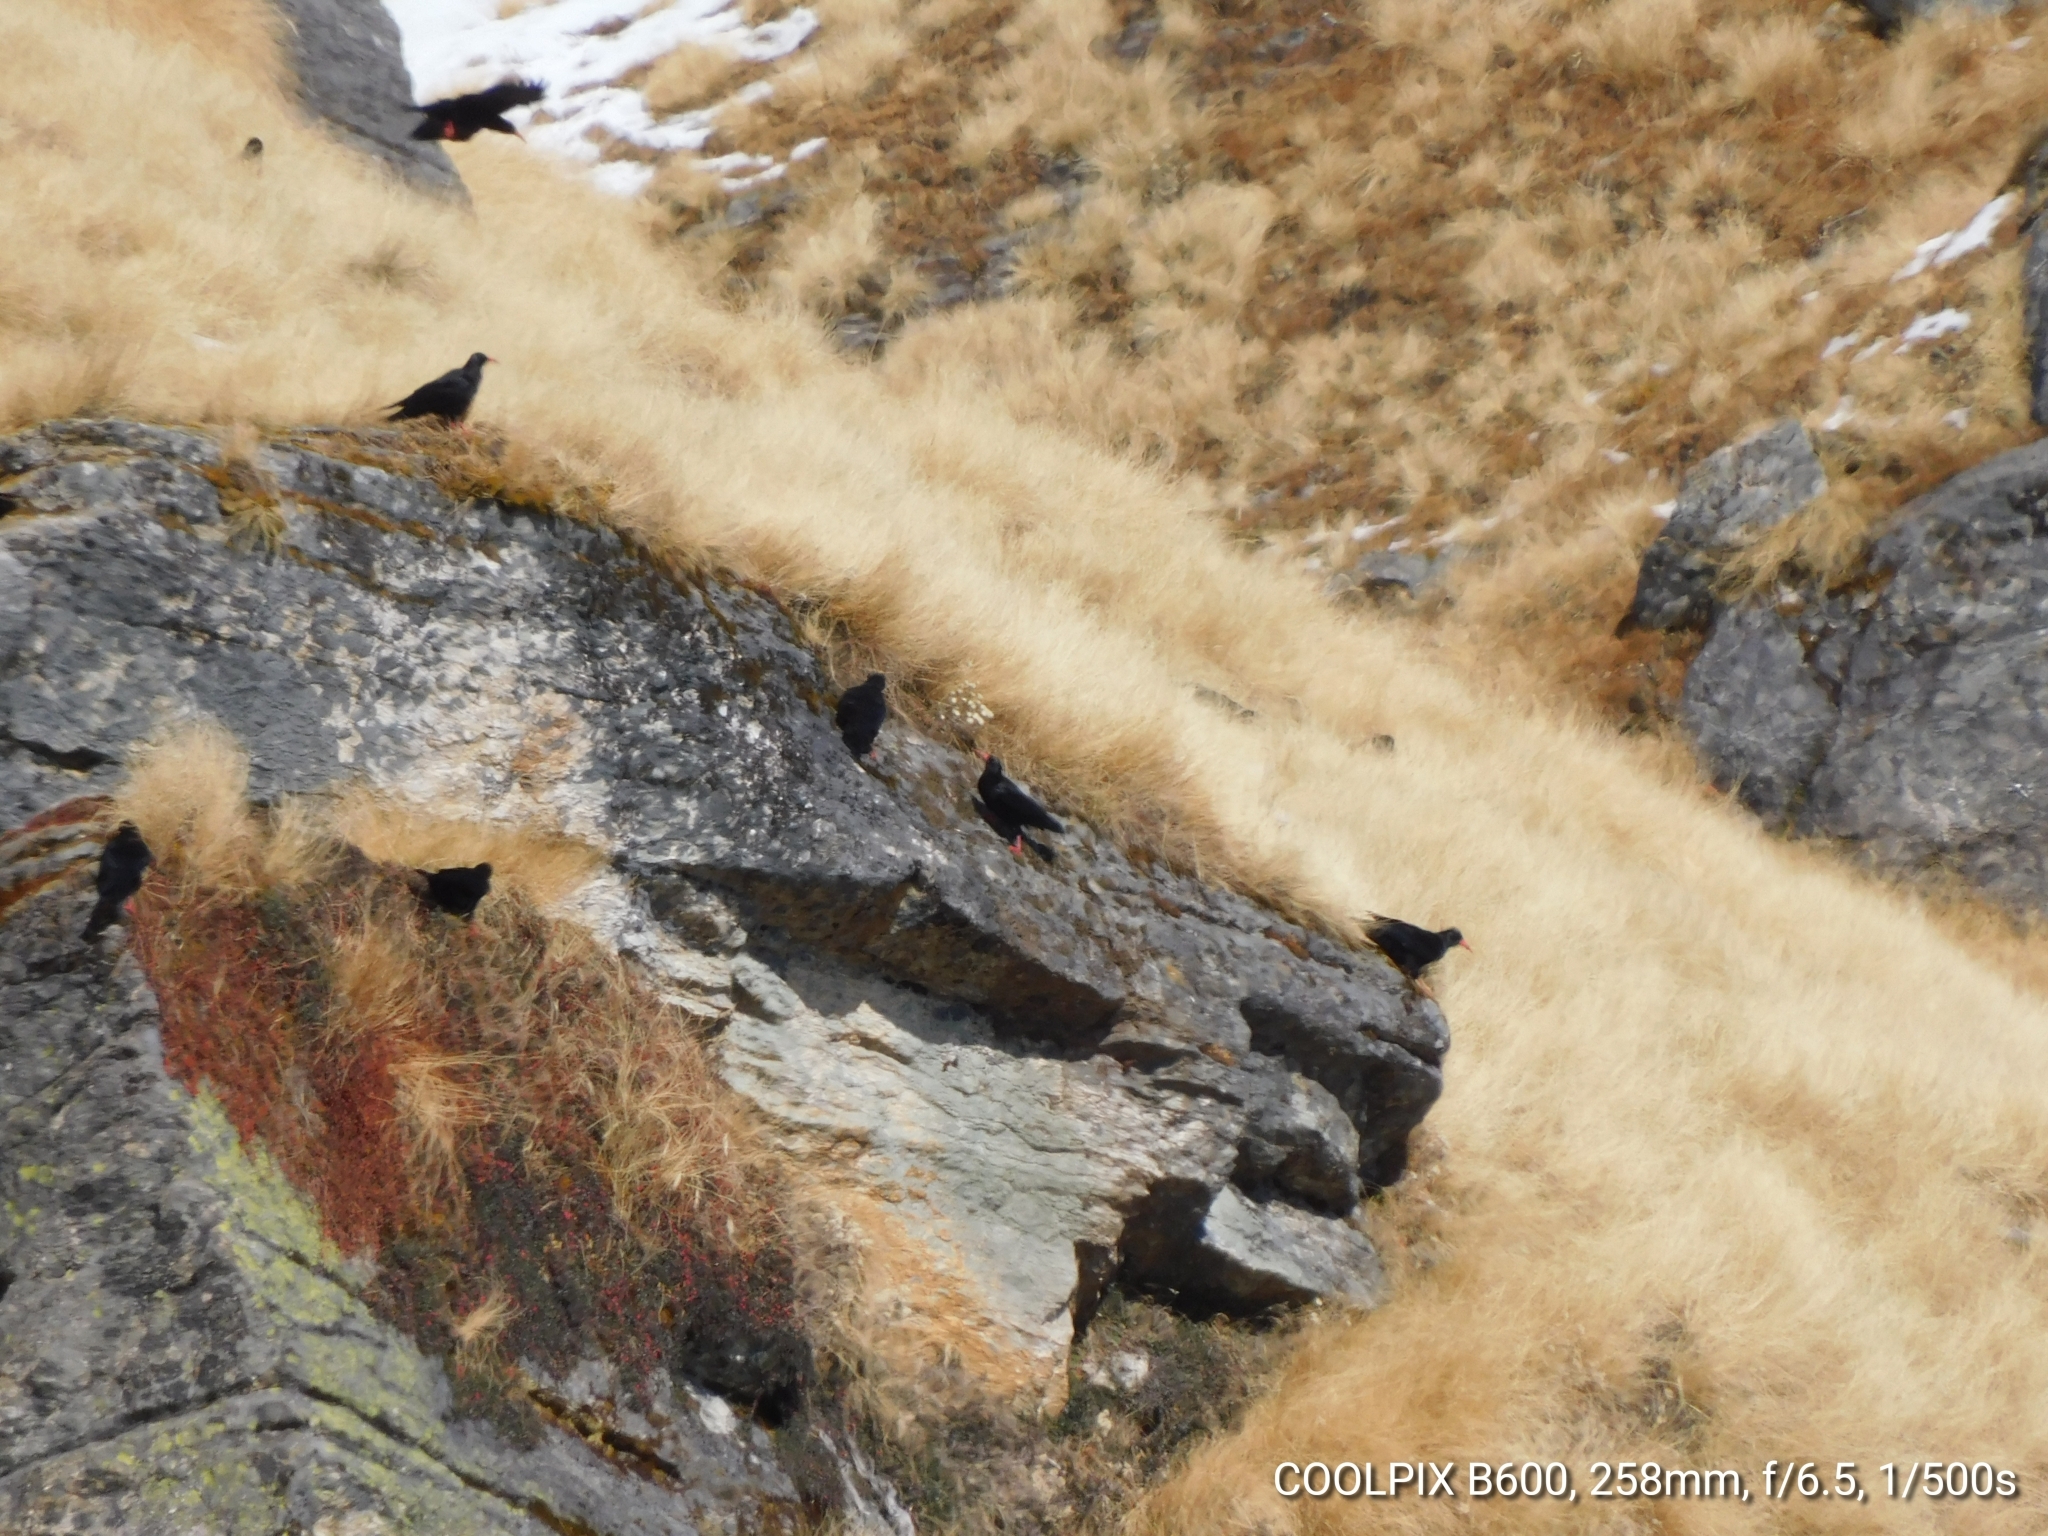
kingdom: Animalia
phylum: Chordata
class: Aves
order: Passeriformes
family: Corvidae
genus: Pyrrhocorax
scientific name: Pyrrhocorax pyrrhocorax
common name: Red-billed chough
